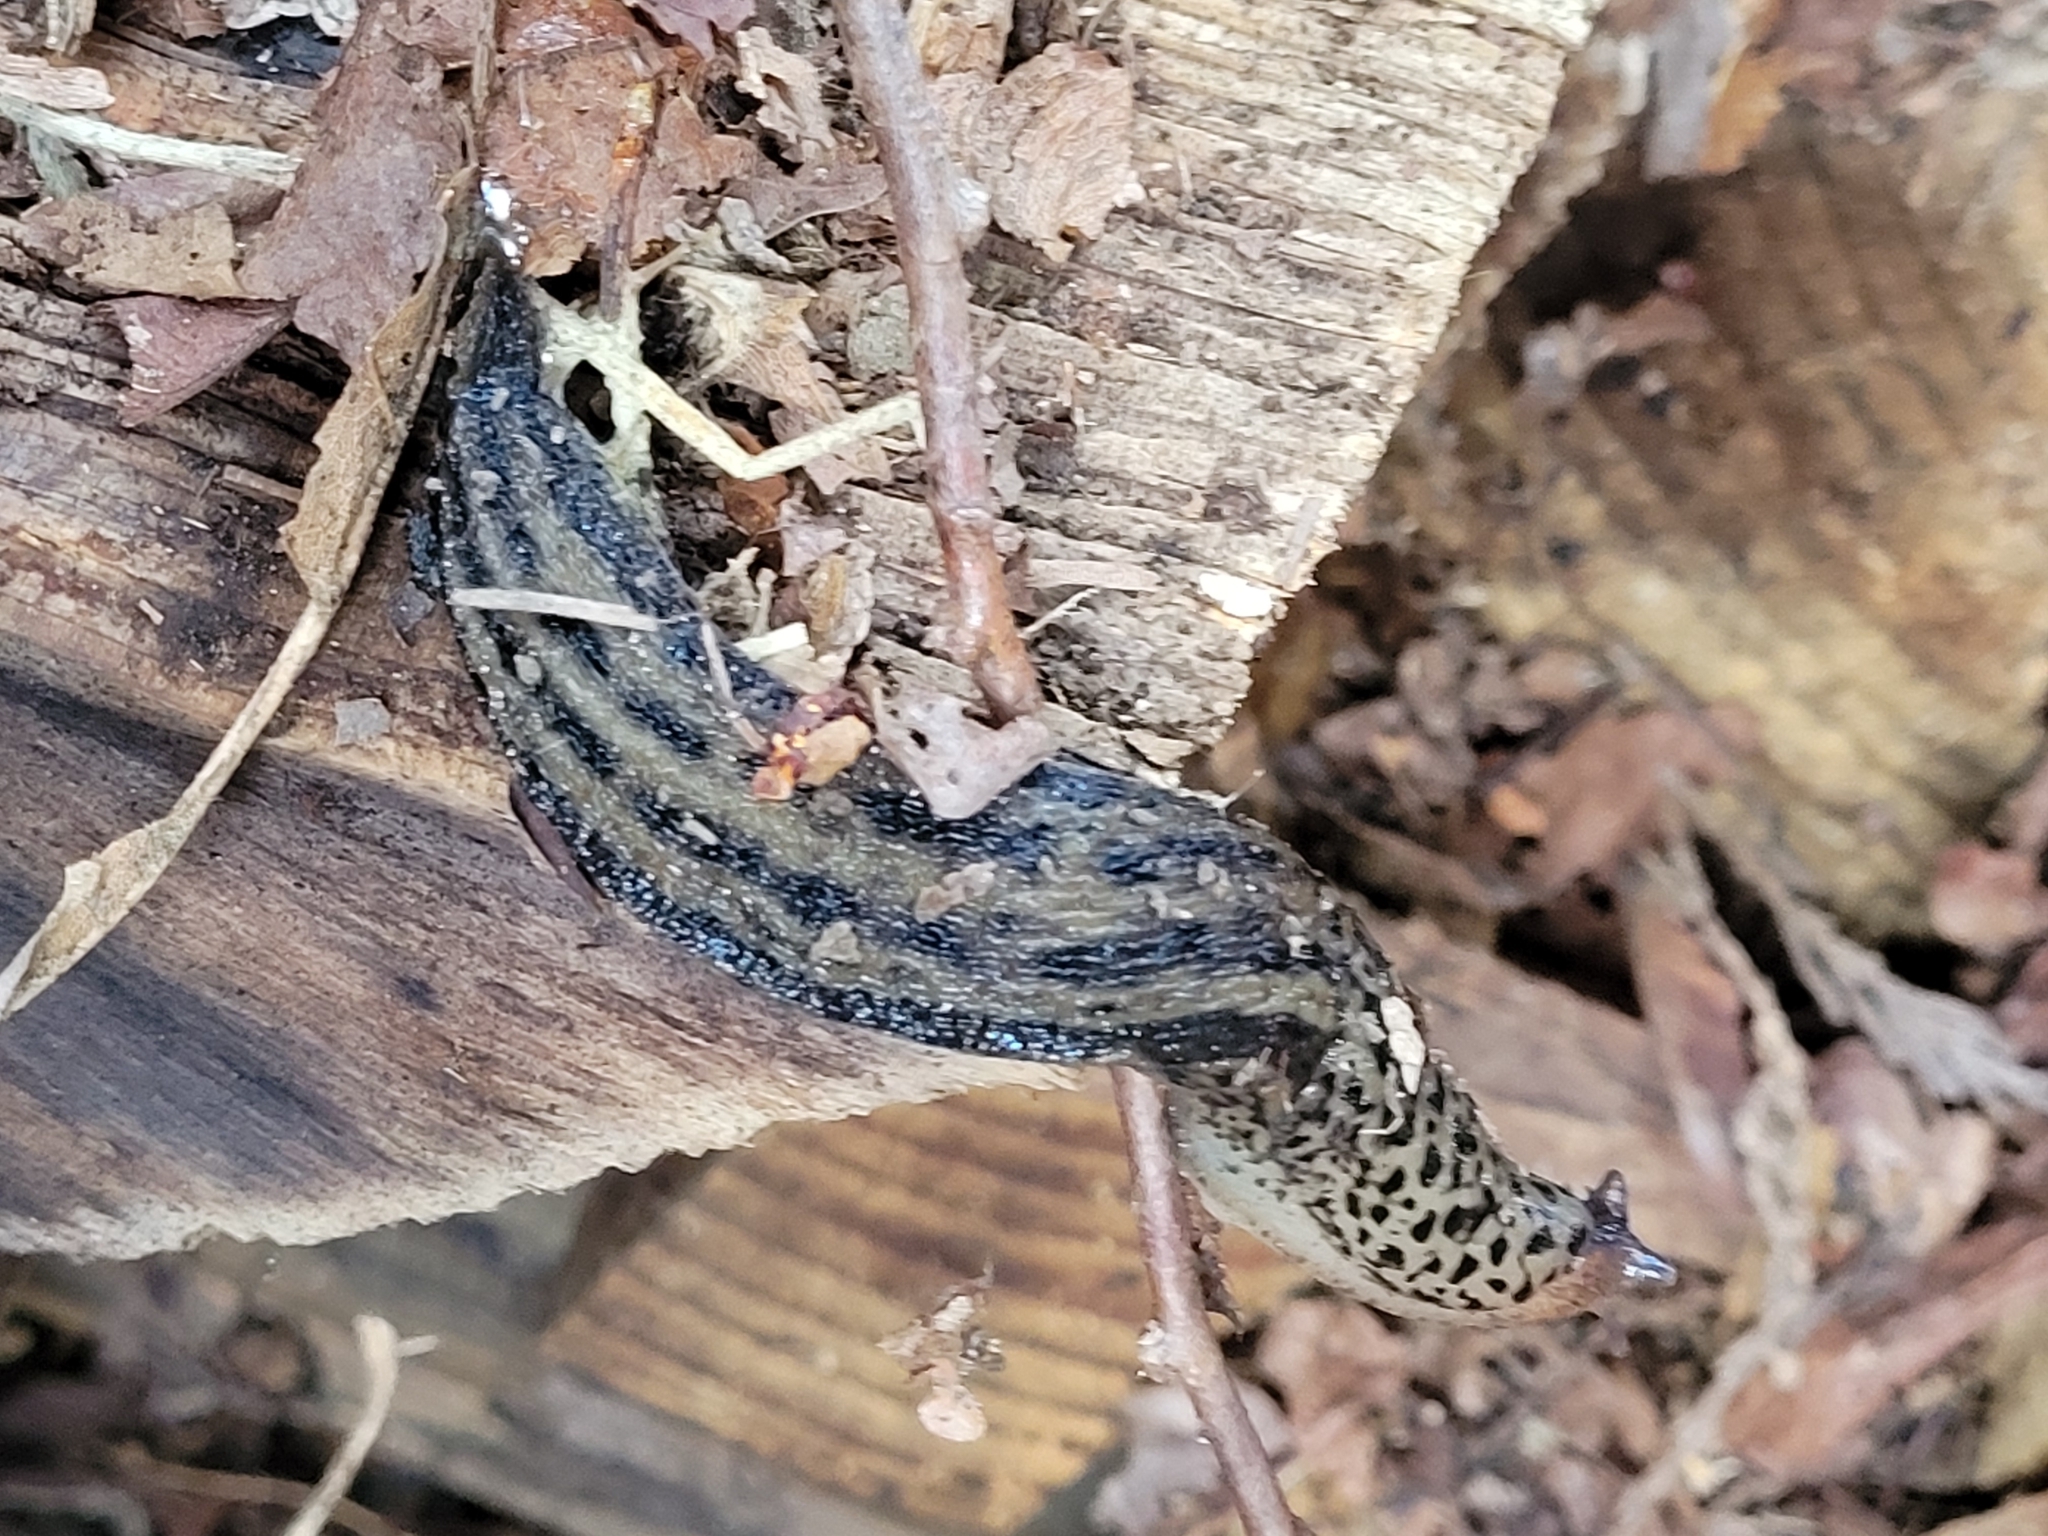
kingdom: Animalia
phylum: Mollusca
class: Gastropoda
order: Stylommatophora
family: Limacidae
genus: Limax
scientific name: Limax maximus
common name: Great grey slug
